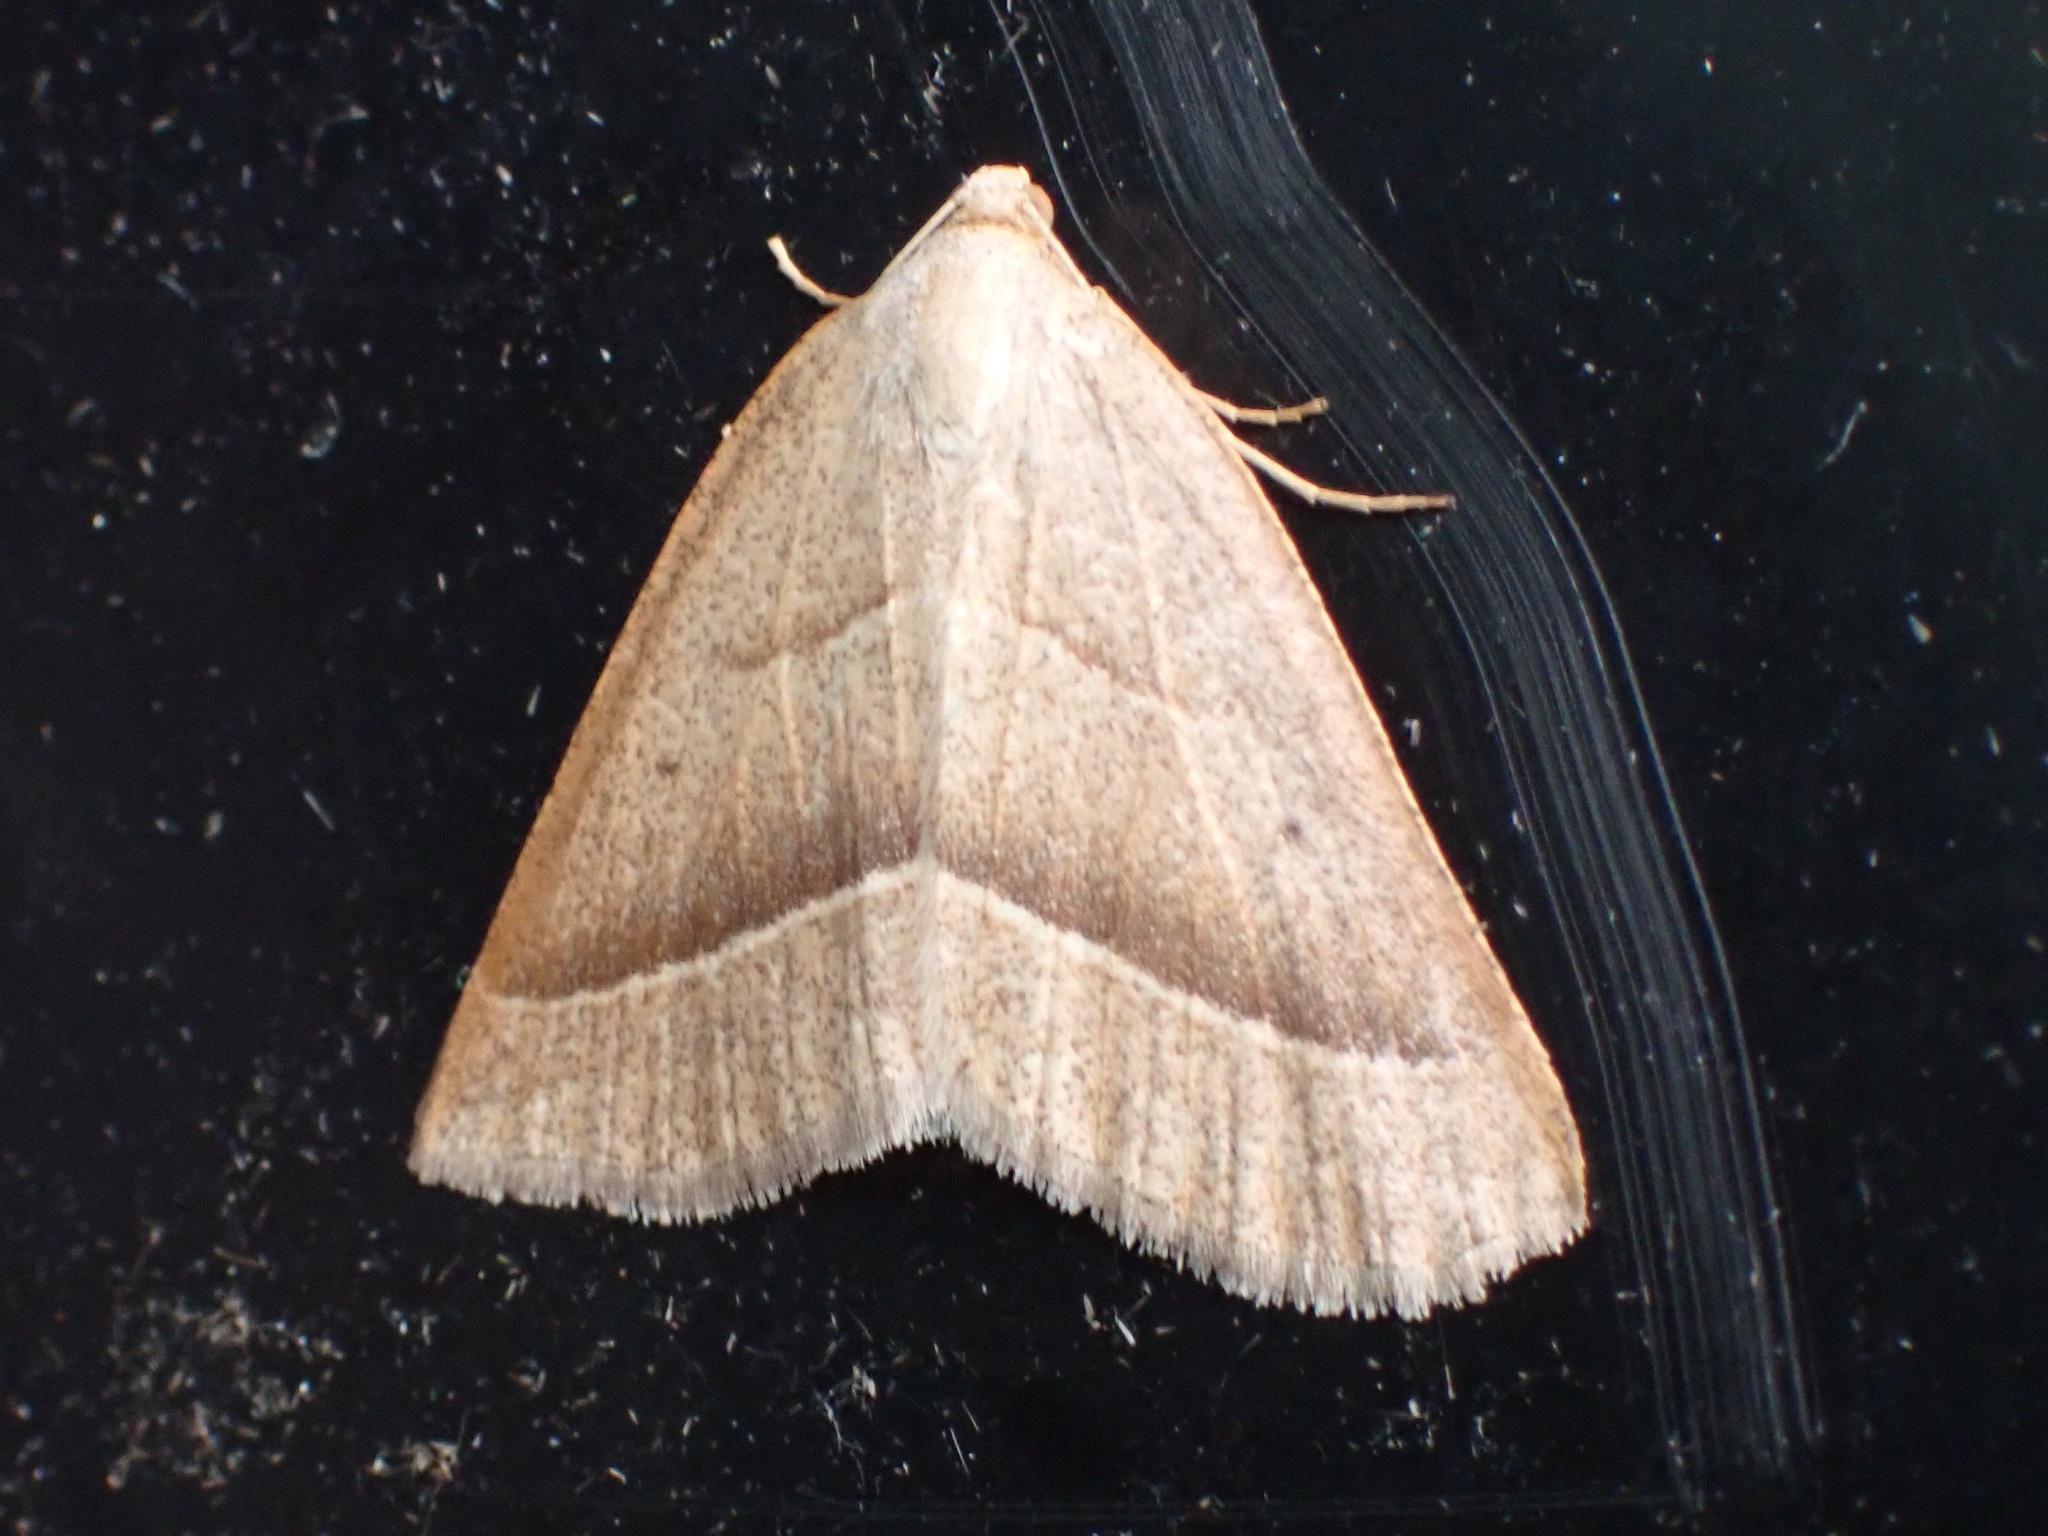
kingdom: Animalia
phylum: Arthropoda
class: Insecta
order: Lepidoptera
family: Pterophoridae
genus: Pterophorus
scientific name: Pterophorus Petrophora chlorosata
